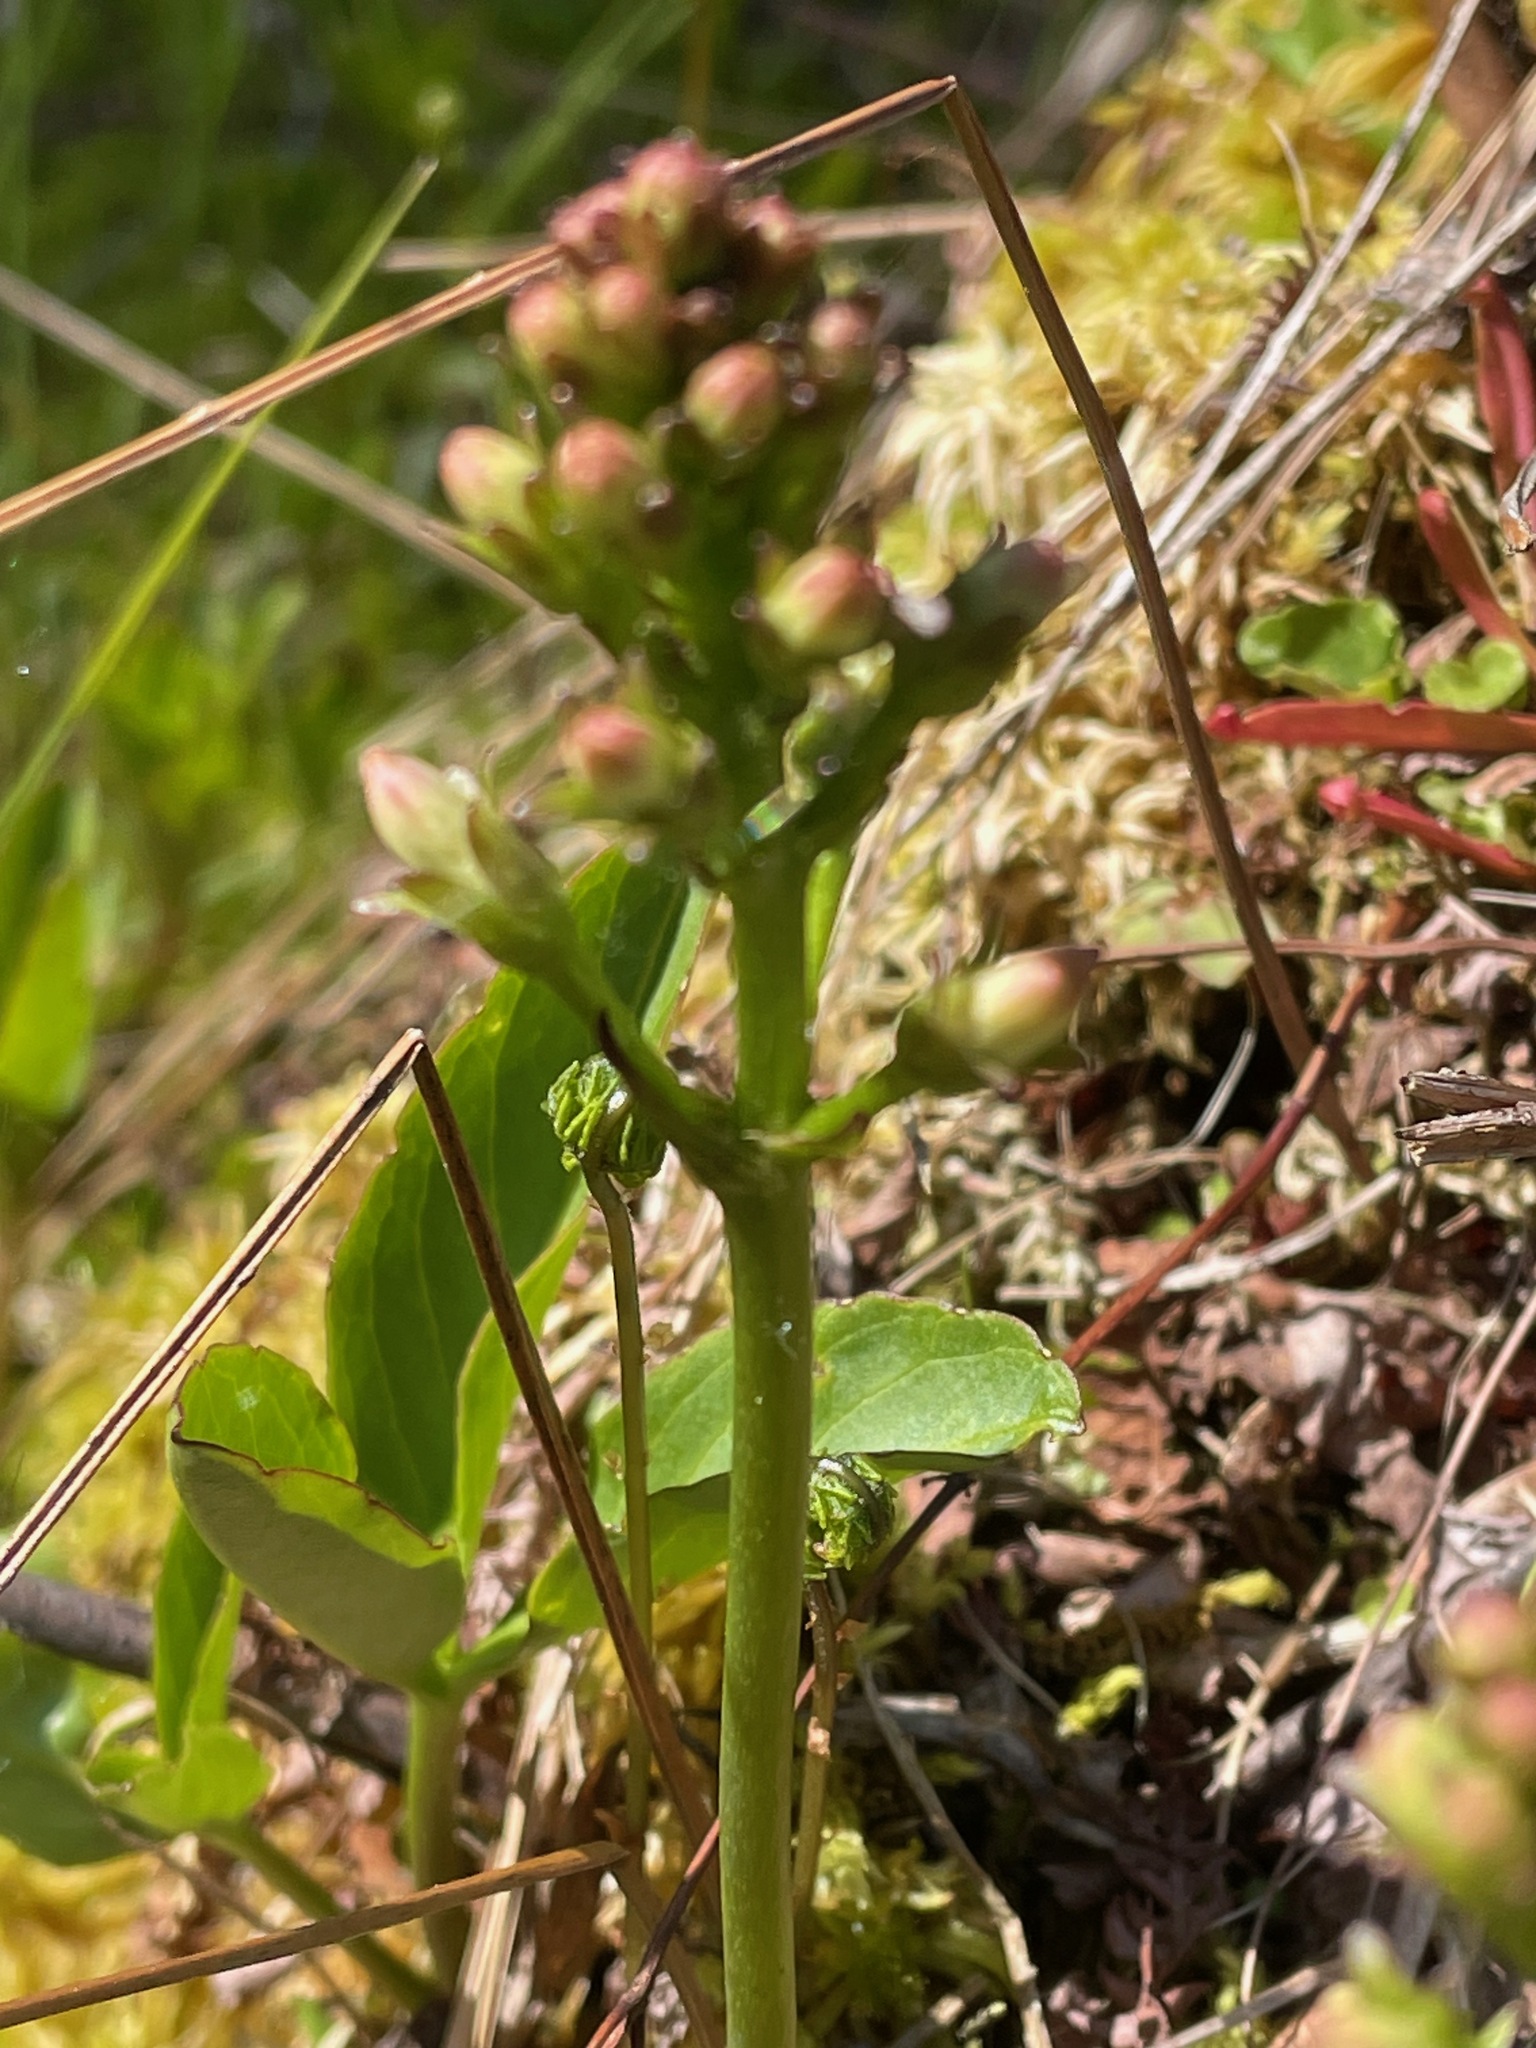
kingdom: Plantae
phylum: Tracheophyta
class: Magnoliopsida
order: Asterales
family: Menyanthaceae
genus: Menyanthes
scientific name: Menyanthes trifoliata
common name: Bogbean
